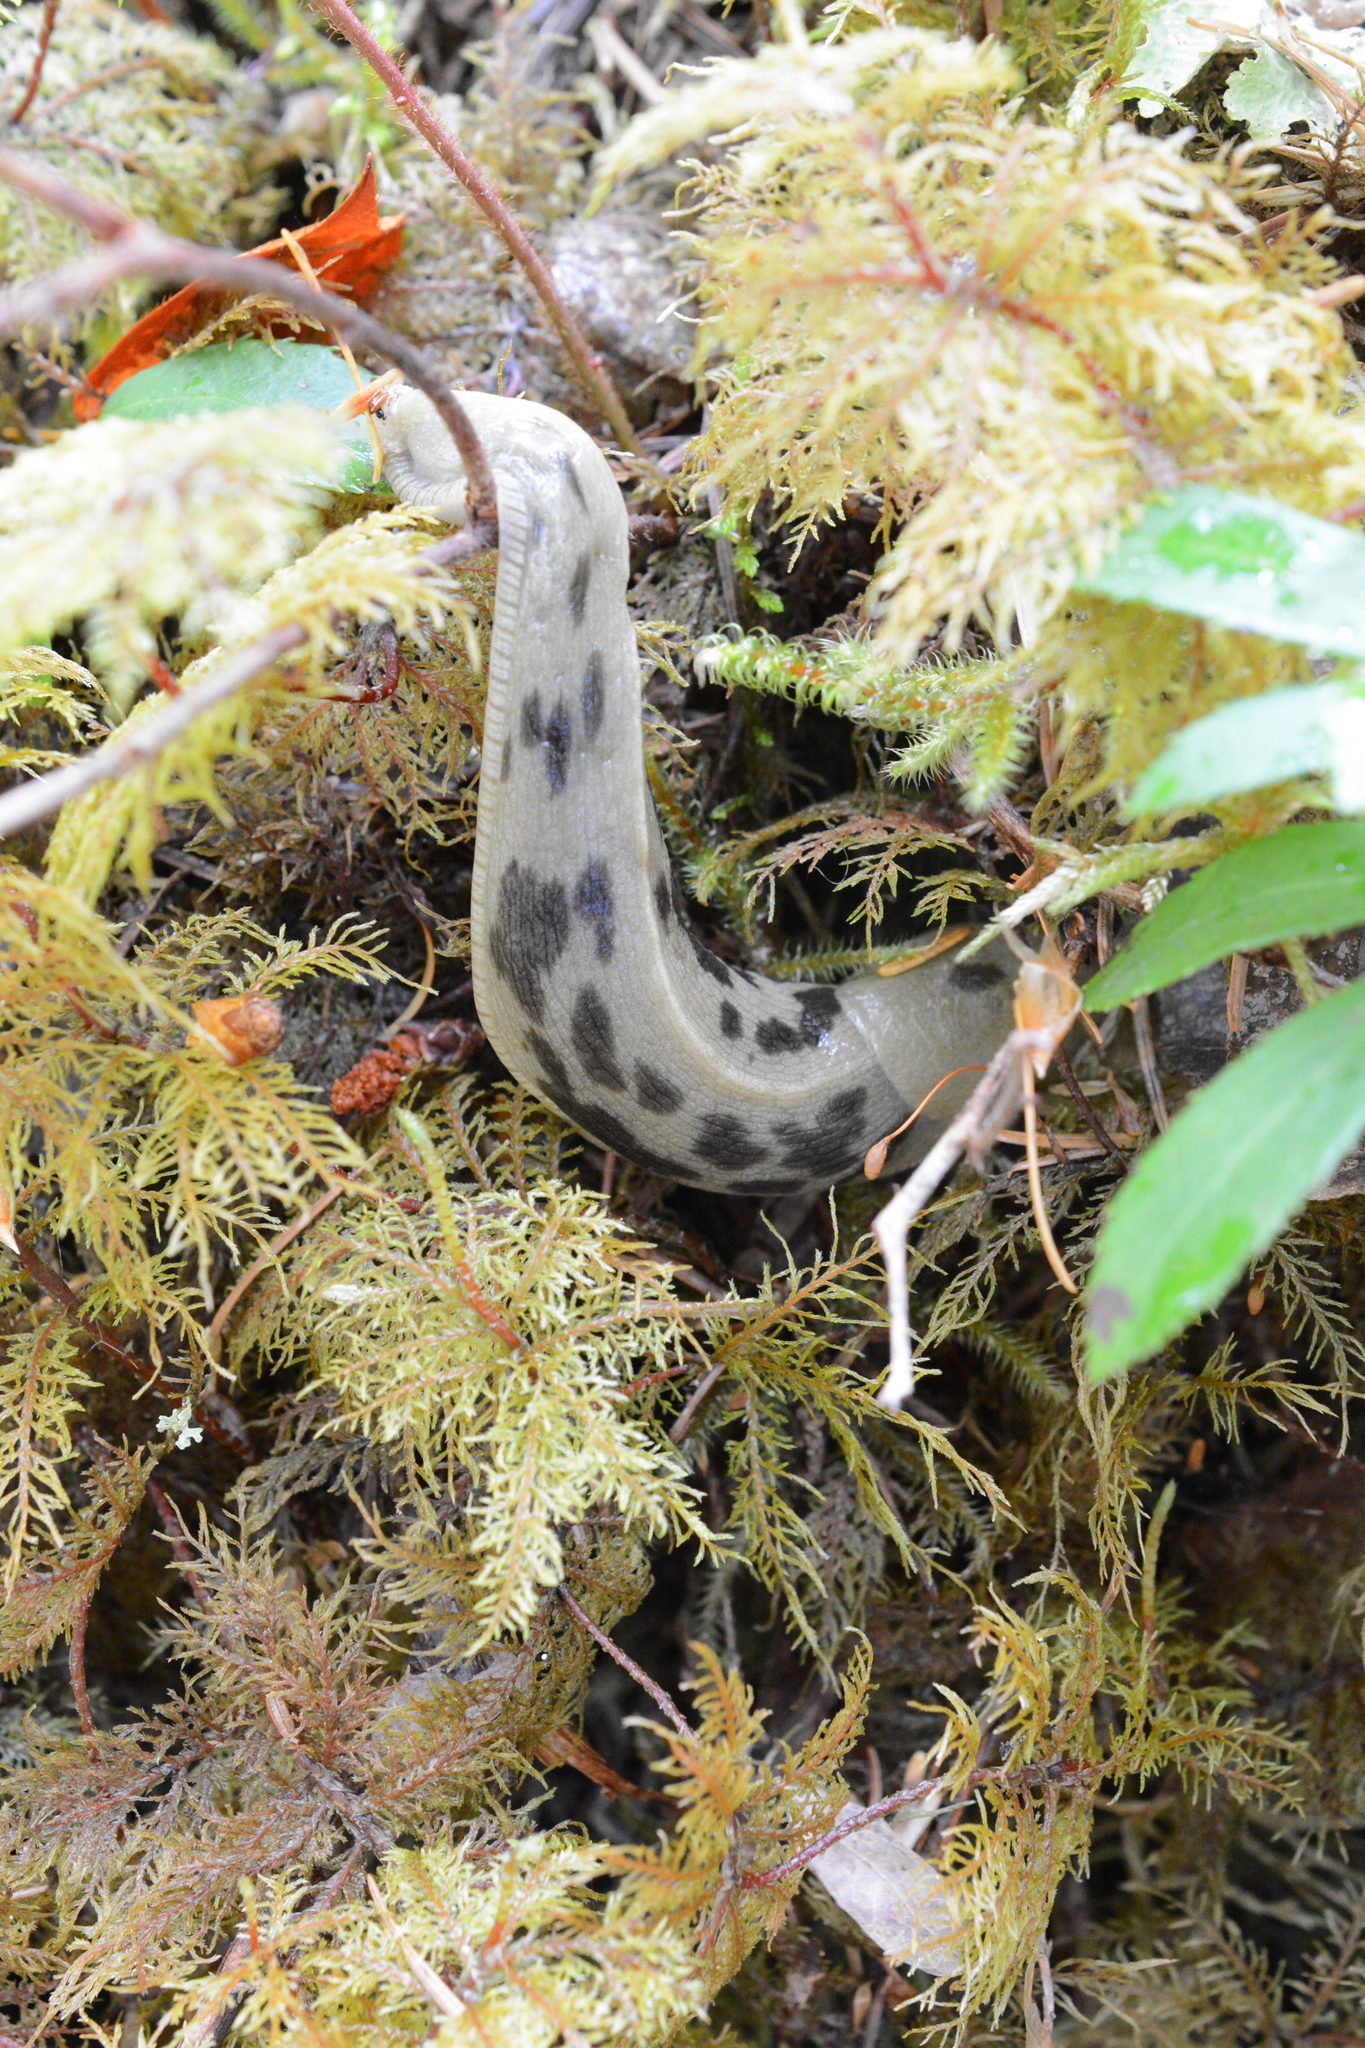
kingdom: Animalia
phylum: Mollusca
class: Gastropoda
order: Stylommatophora
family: Ariolimacidae
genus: Ariolimax
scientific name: Ariolimax columbianus
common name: Pacific banana slug
